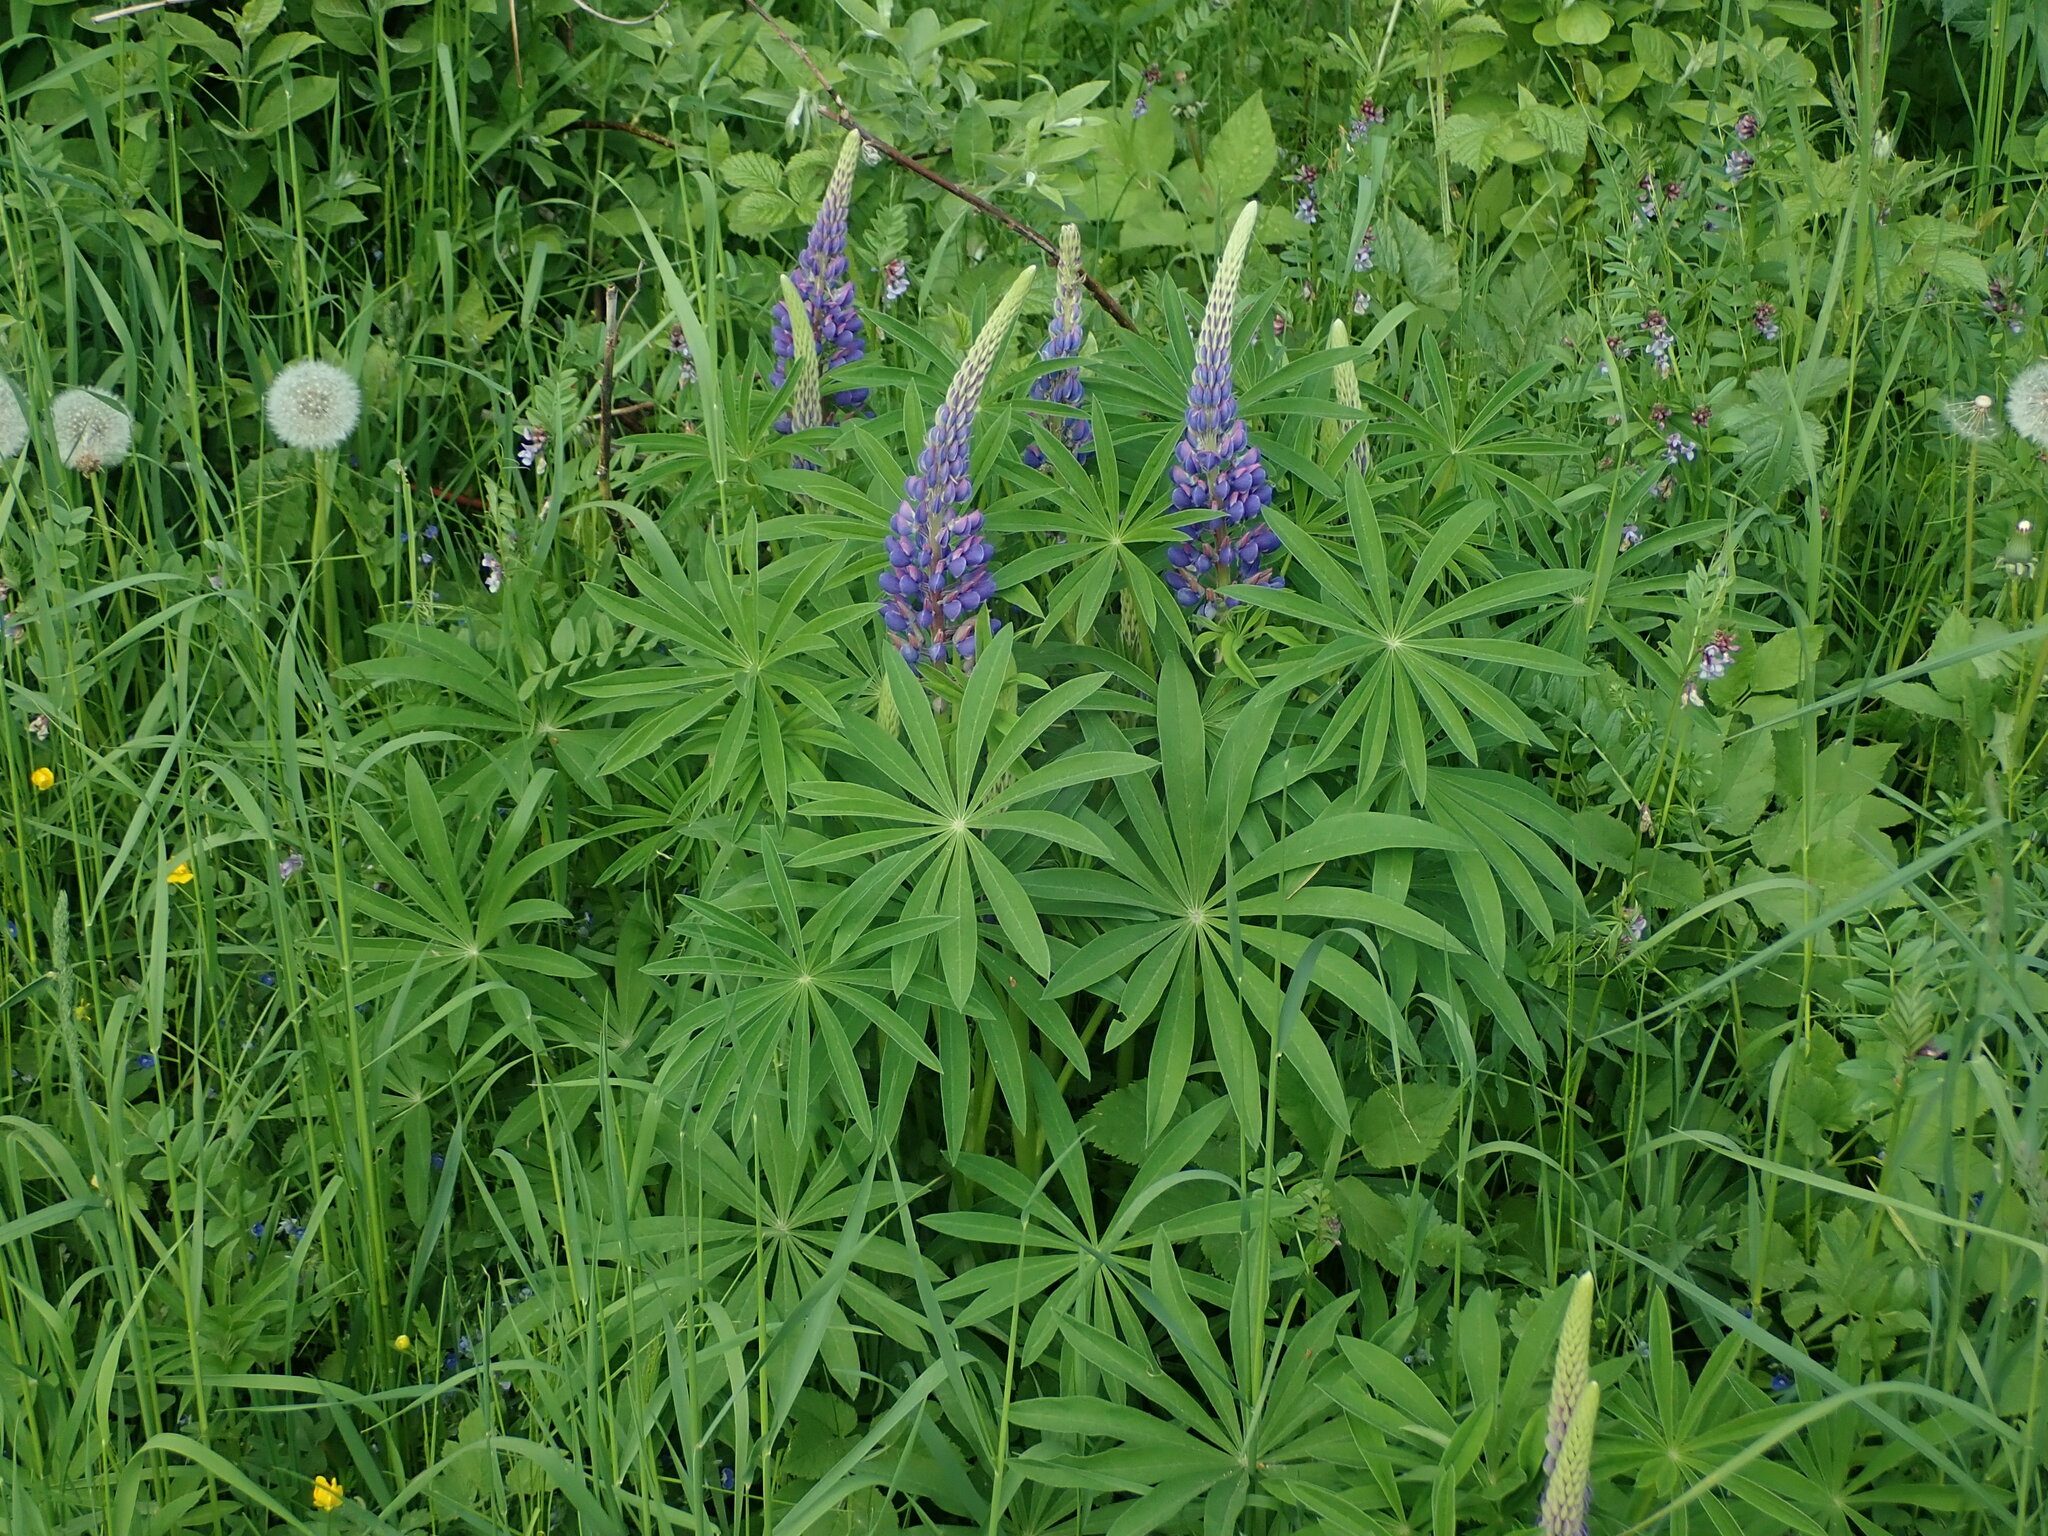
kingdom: Plantae
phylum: Tracheophyta
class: Magnoliopsida
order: Fabales
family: Fabaceae
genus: Lupinus
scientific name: Lupinus polyphyllus
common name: Garden lupin
